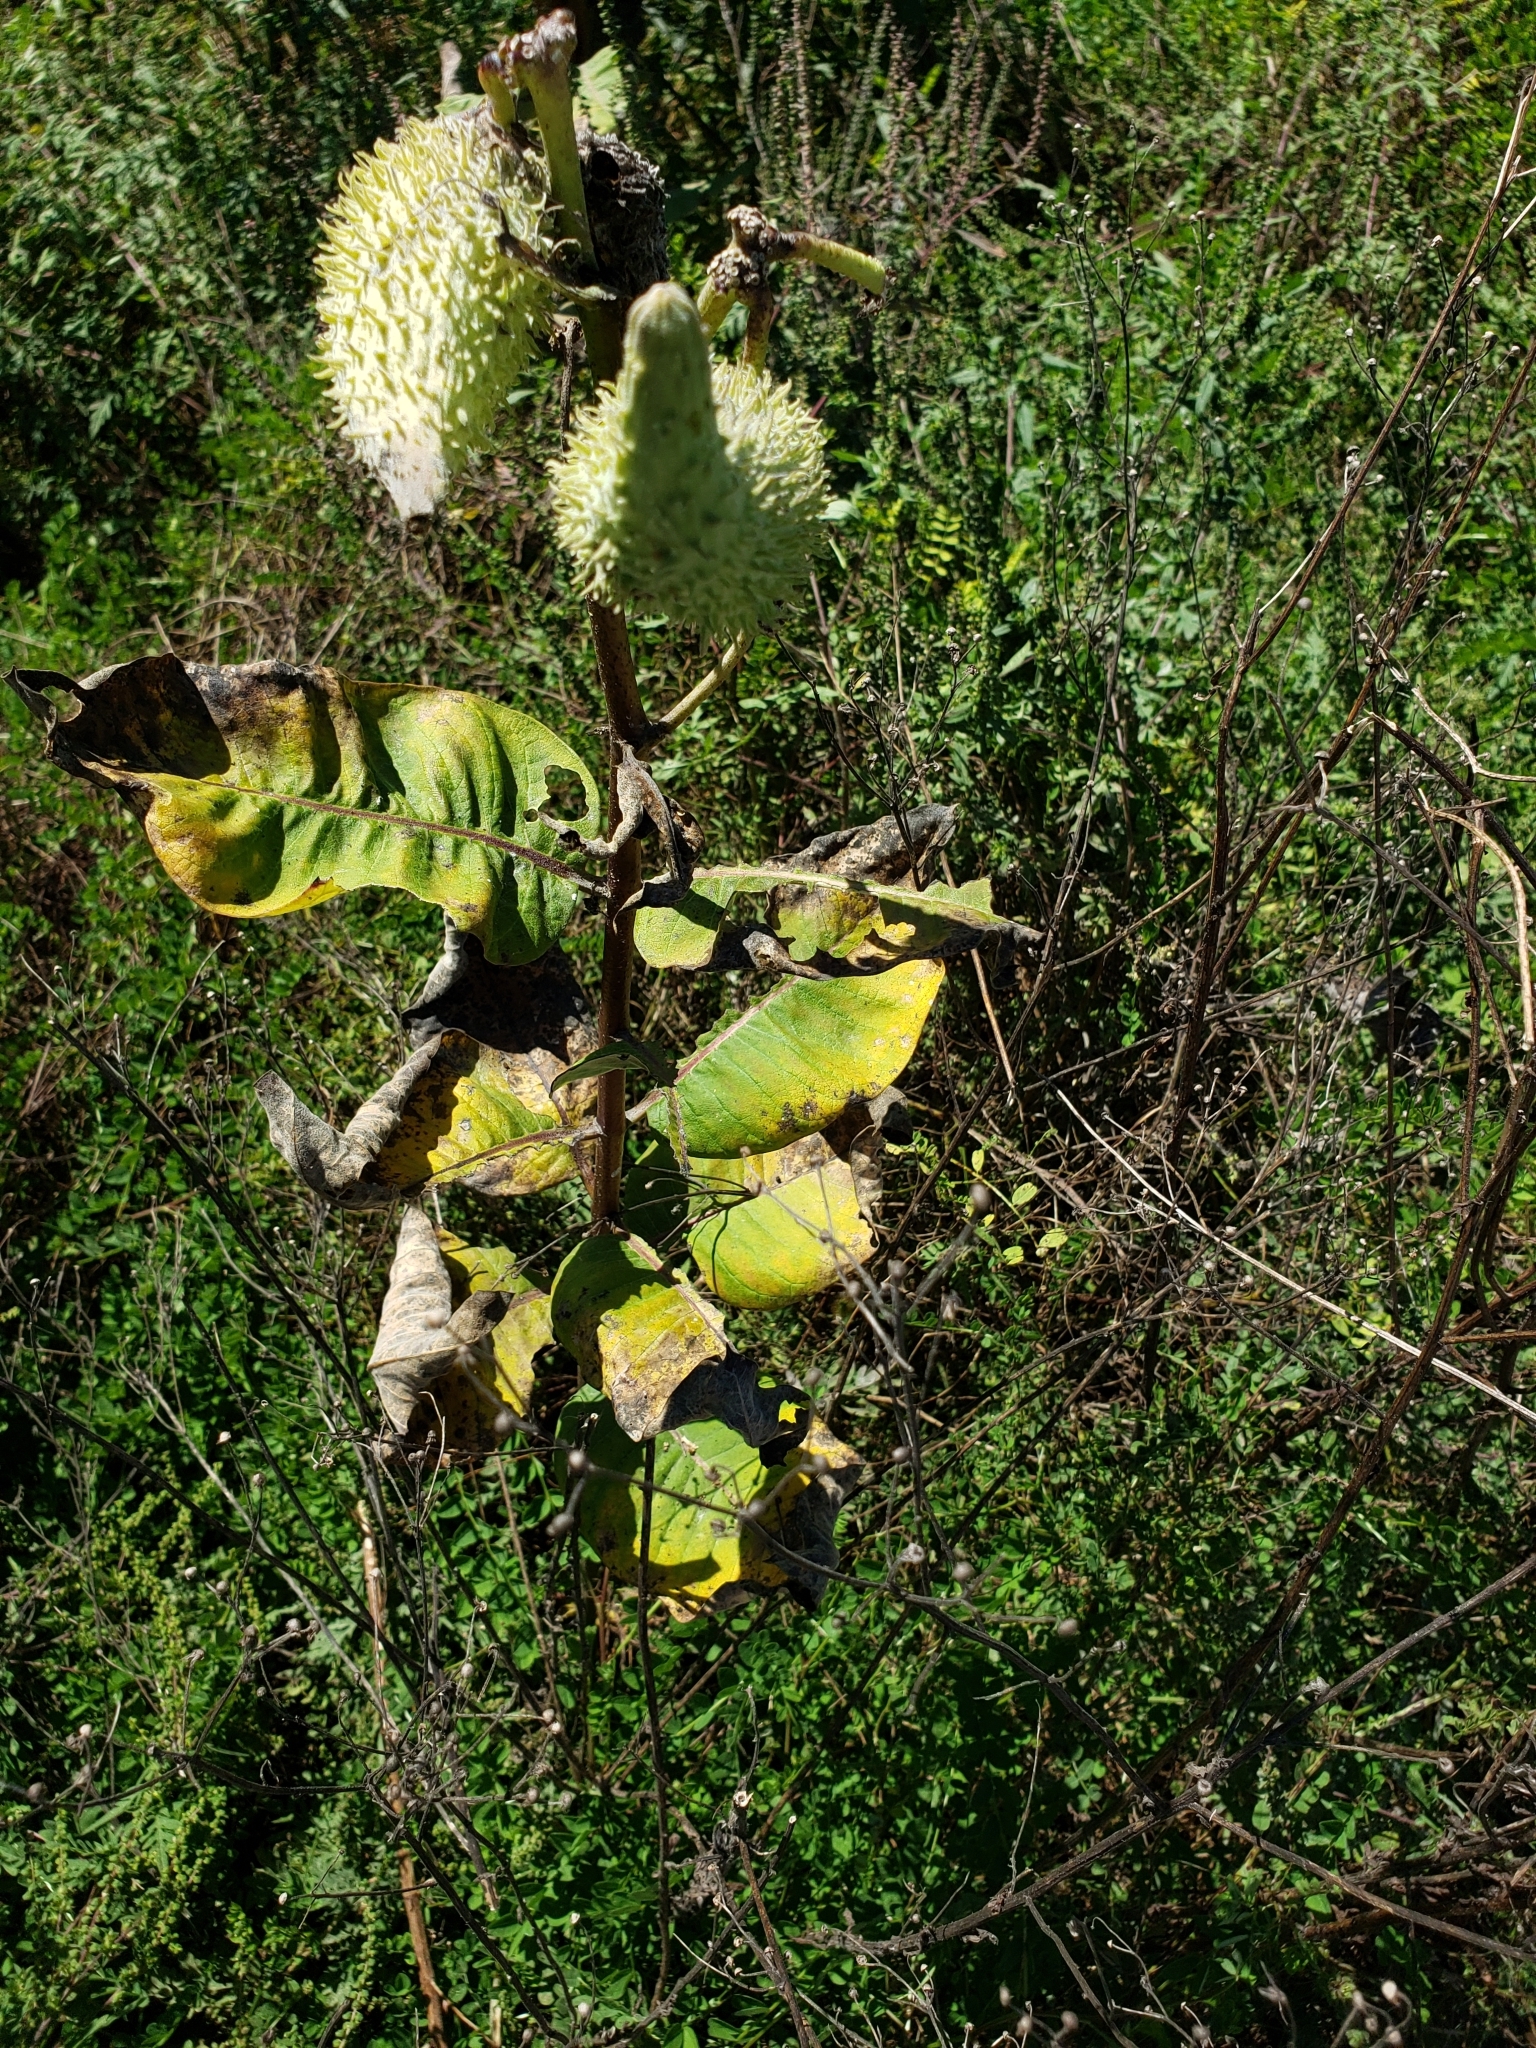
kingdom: Plantae
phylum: Tracheophyta
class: Magnoliopsida
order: Gentianales
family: Apocynaceae
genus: Asclepias
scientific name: Asclepias syriaca
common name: Common milkweed
